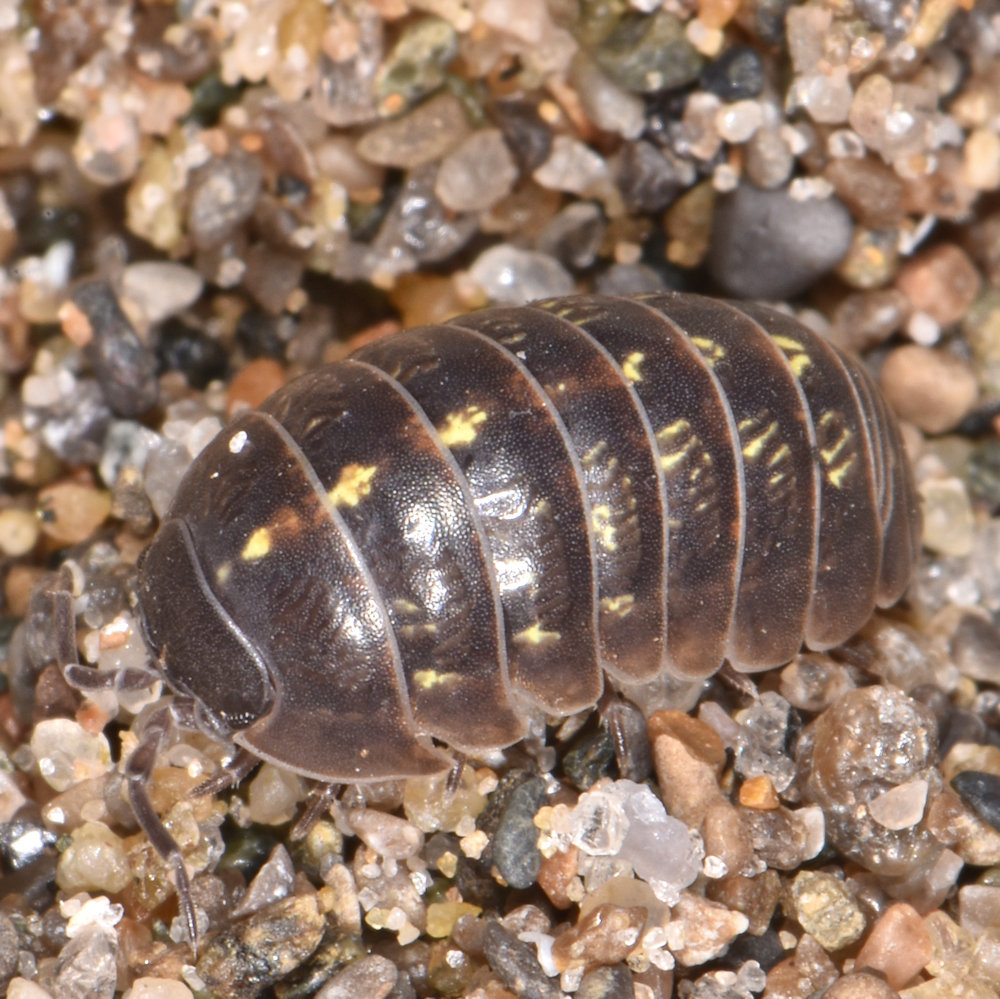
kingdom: Animalia
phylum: Arthropoda
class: Malacostraca
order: Isopoda
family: Armadillidiidae
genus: Armadillidium
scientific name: Armadillidium vulgare
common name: Common pill woodlouse
